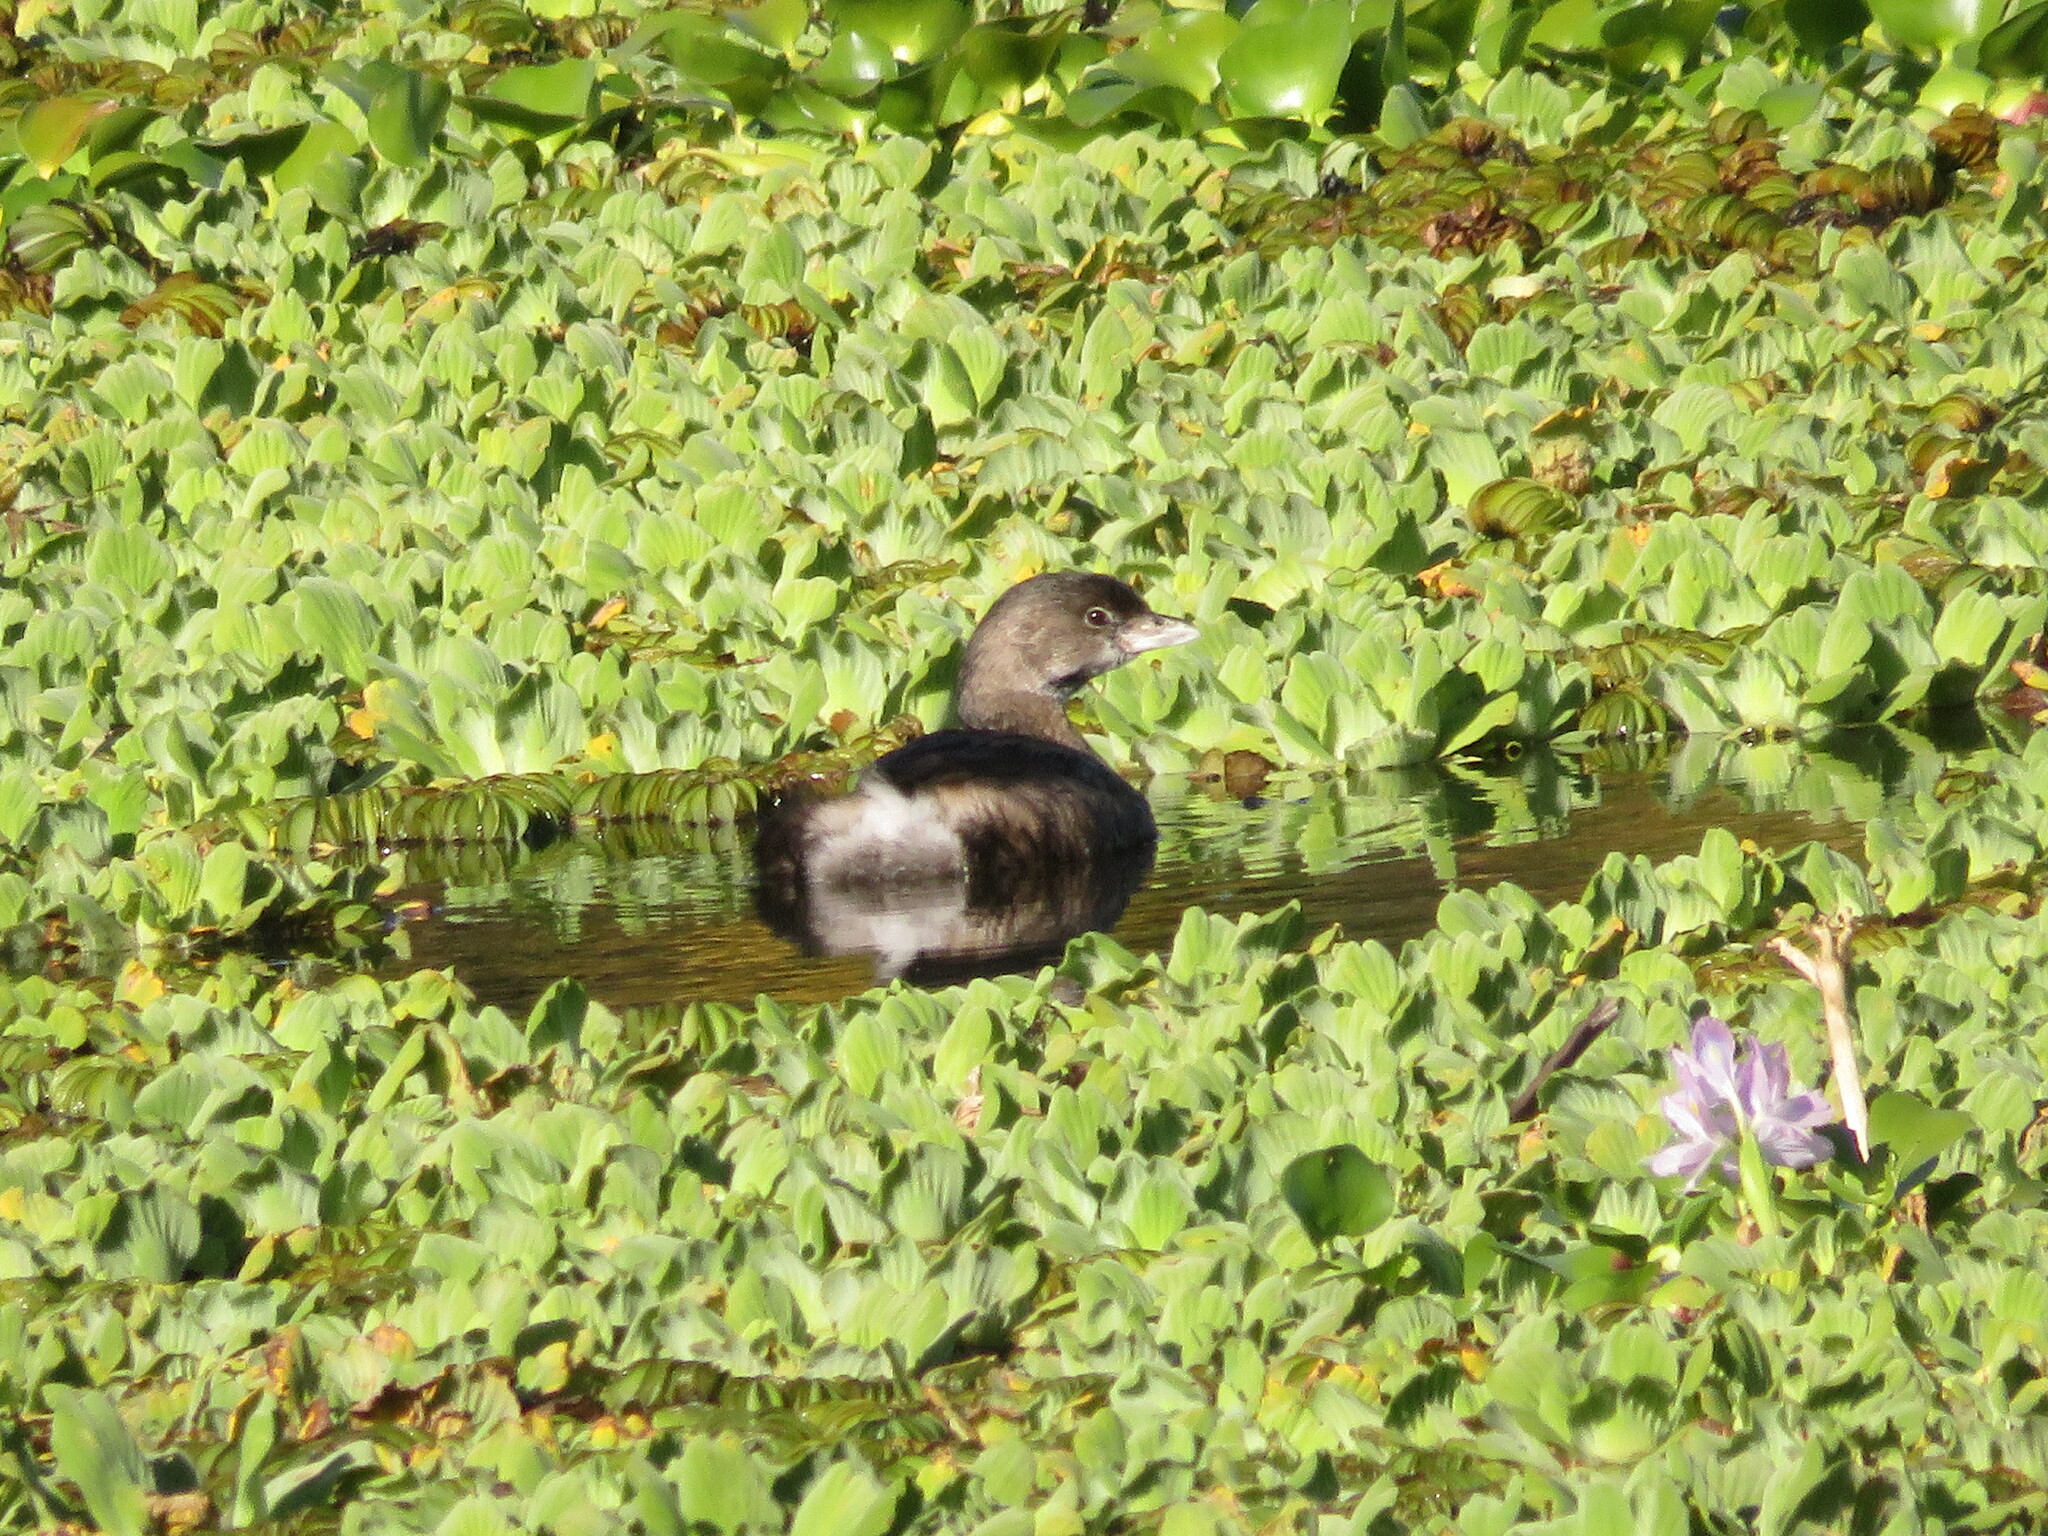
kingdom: Animalia
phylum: Chordata
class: Aves
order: Podicipediformes
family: Podicipedidae
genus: Podilymbus
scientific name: Podilymbus podiceps
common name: Pied-billed grebe
